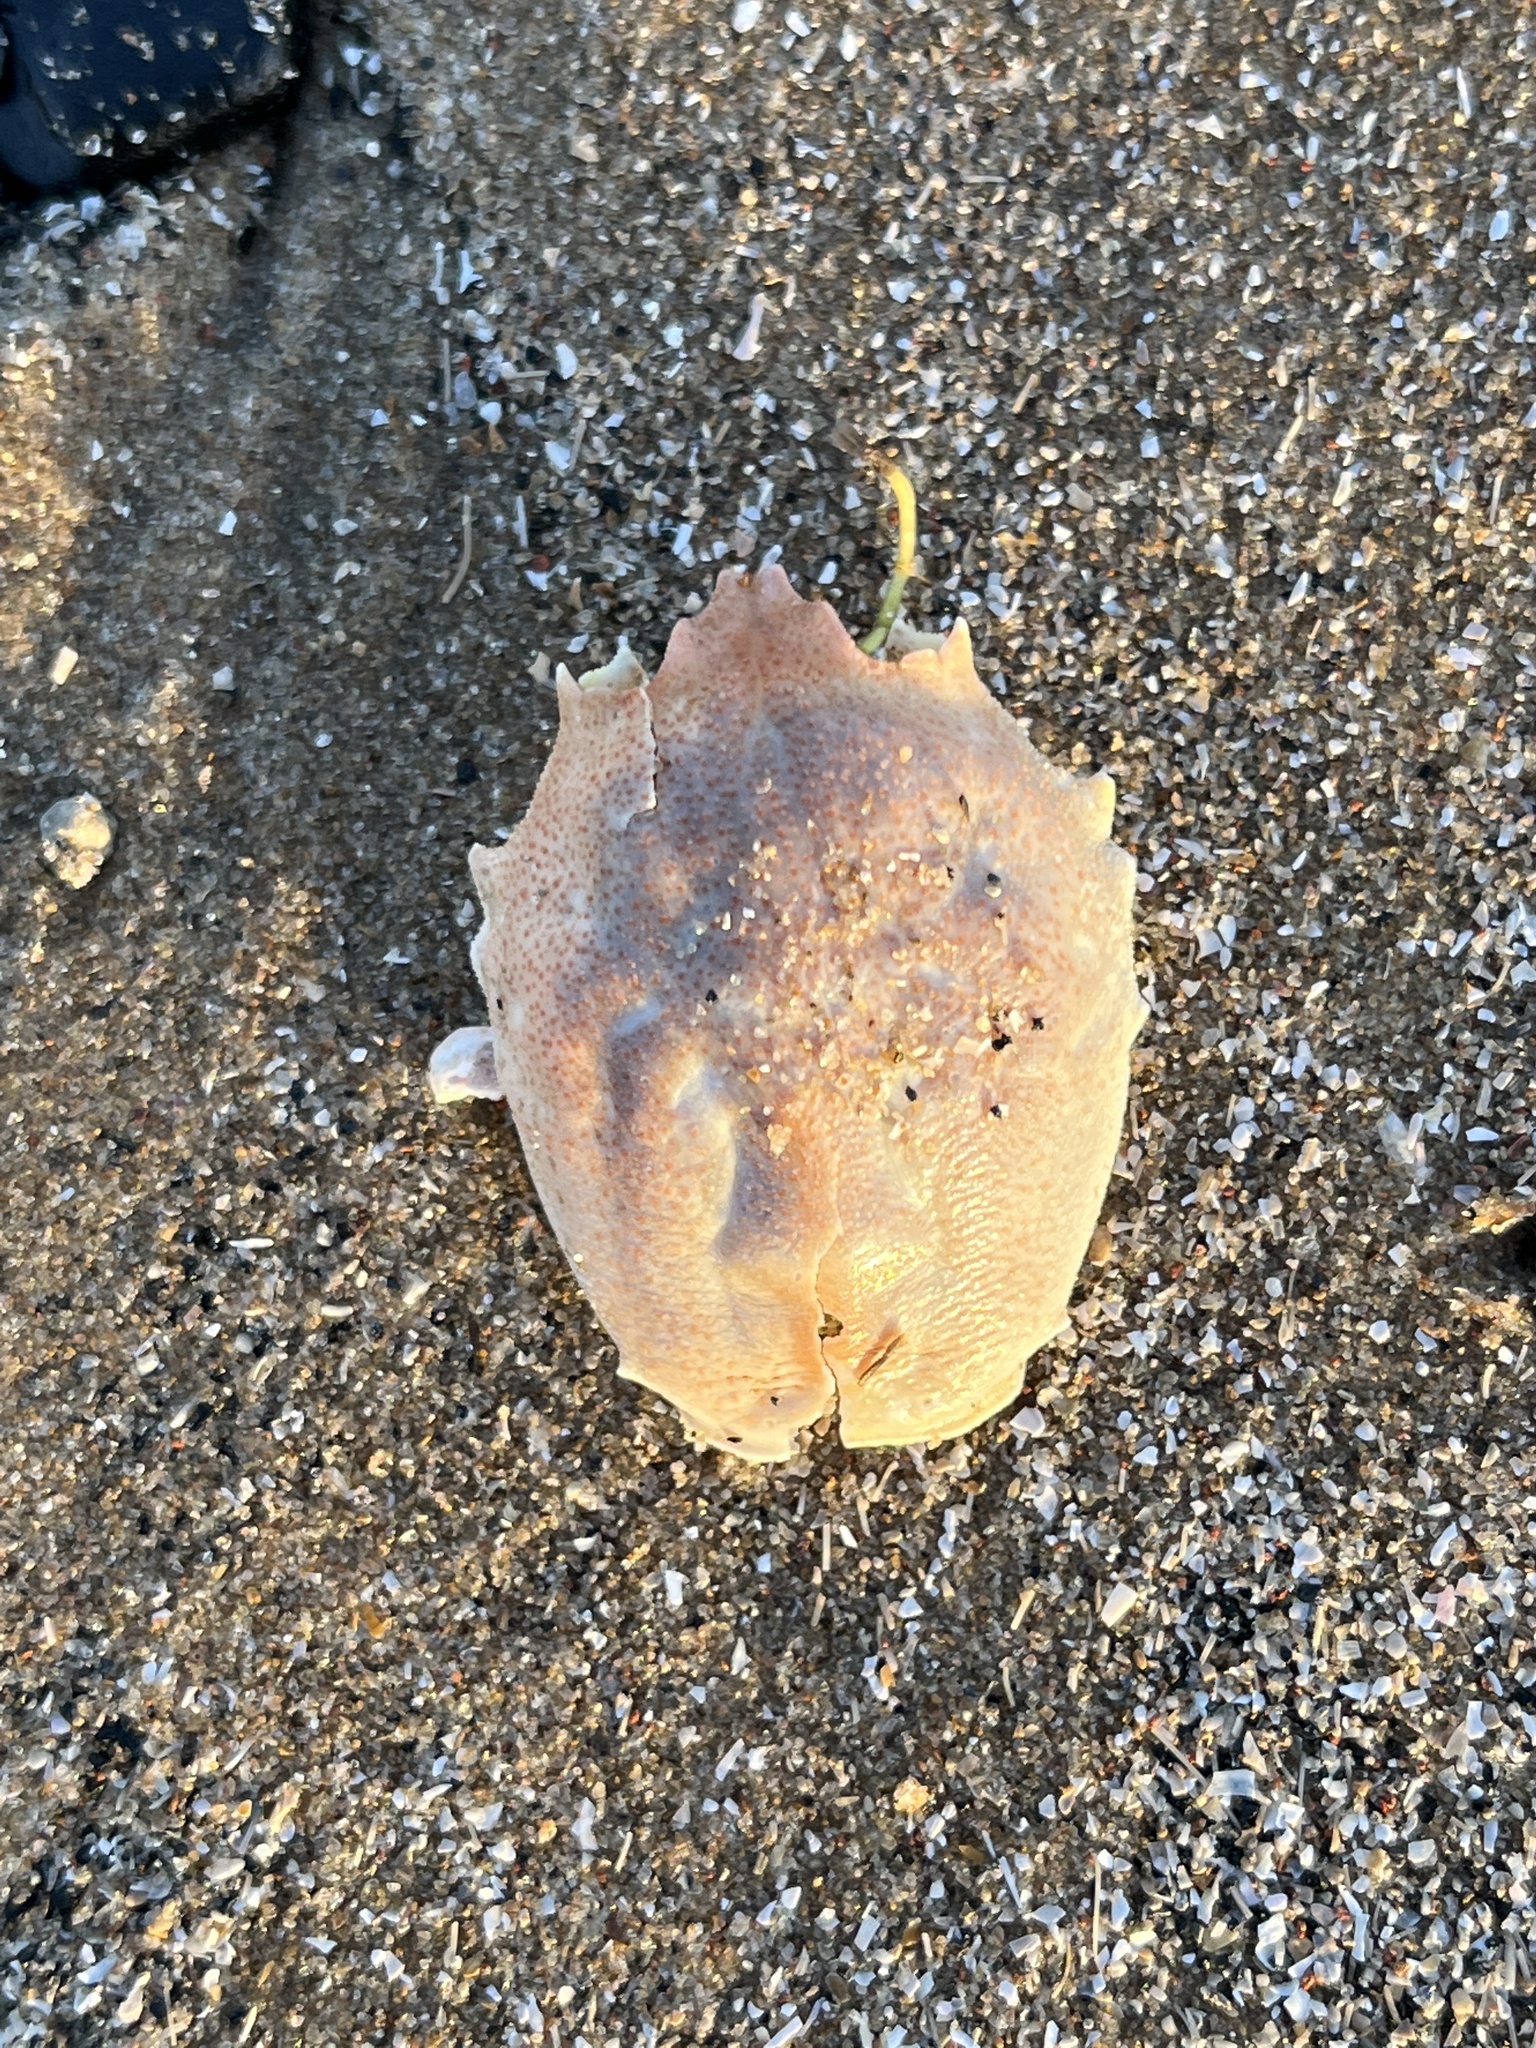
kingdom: Animalia
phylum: Arthropoda
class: Malacostraca
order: Decapoda
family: Corystidae
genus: Corystes
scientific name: Corystes cassivelaunus
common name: Masked crab
